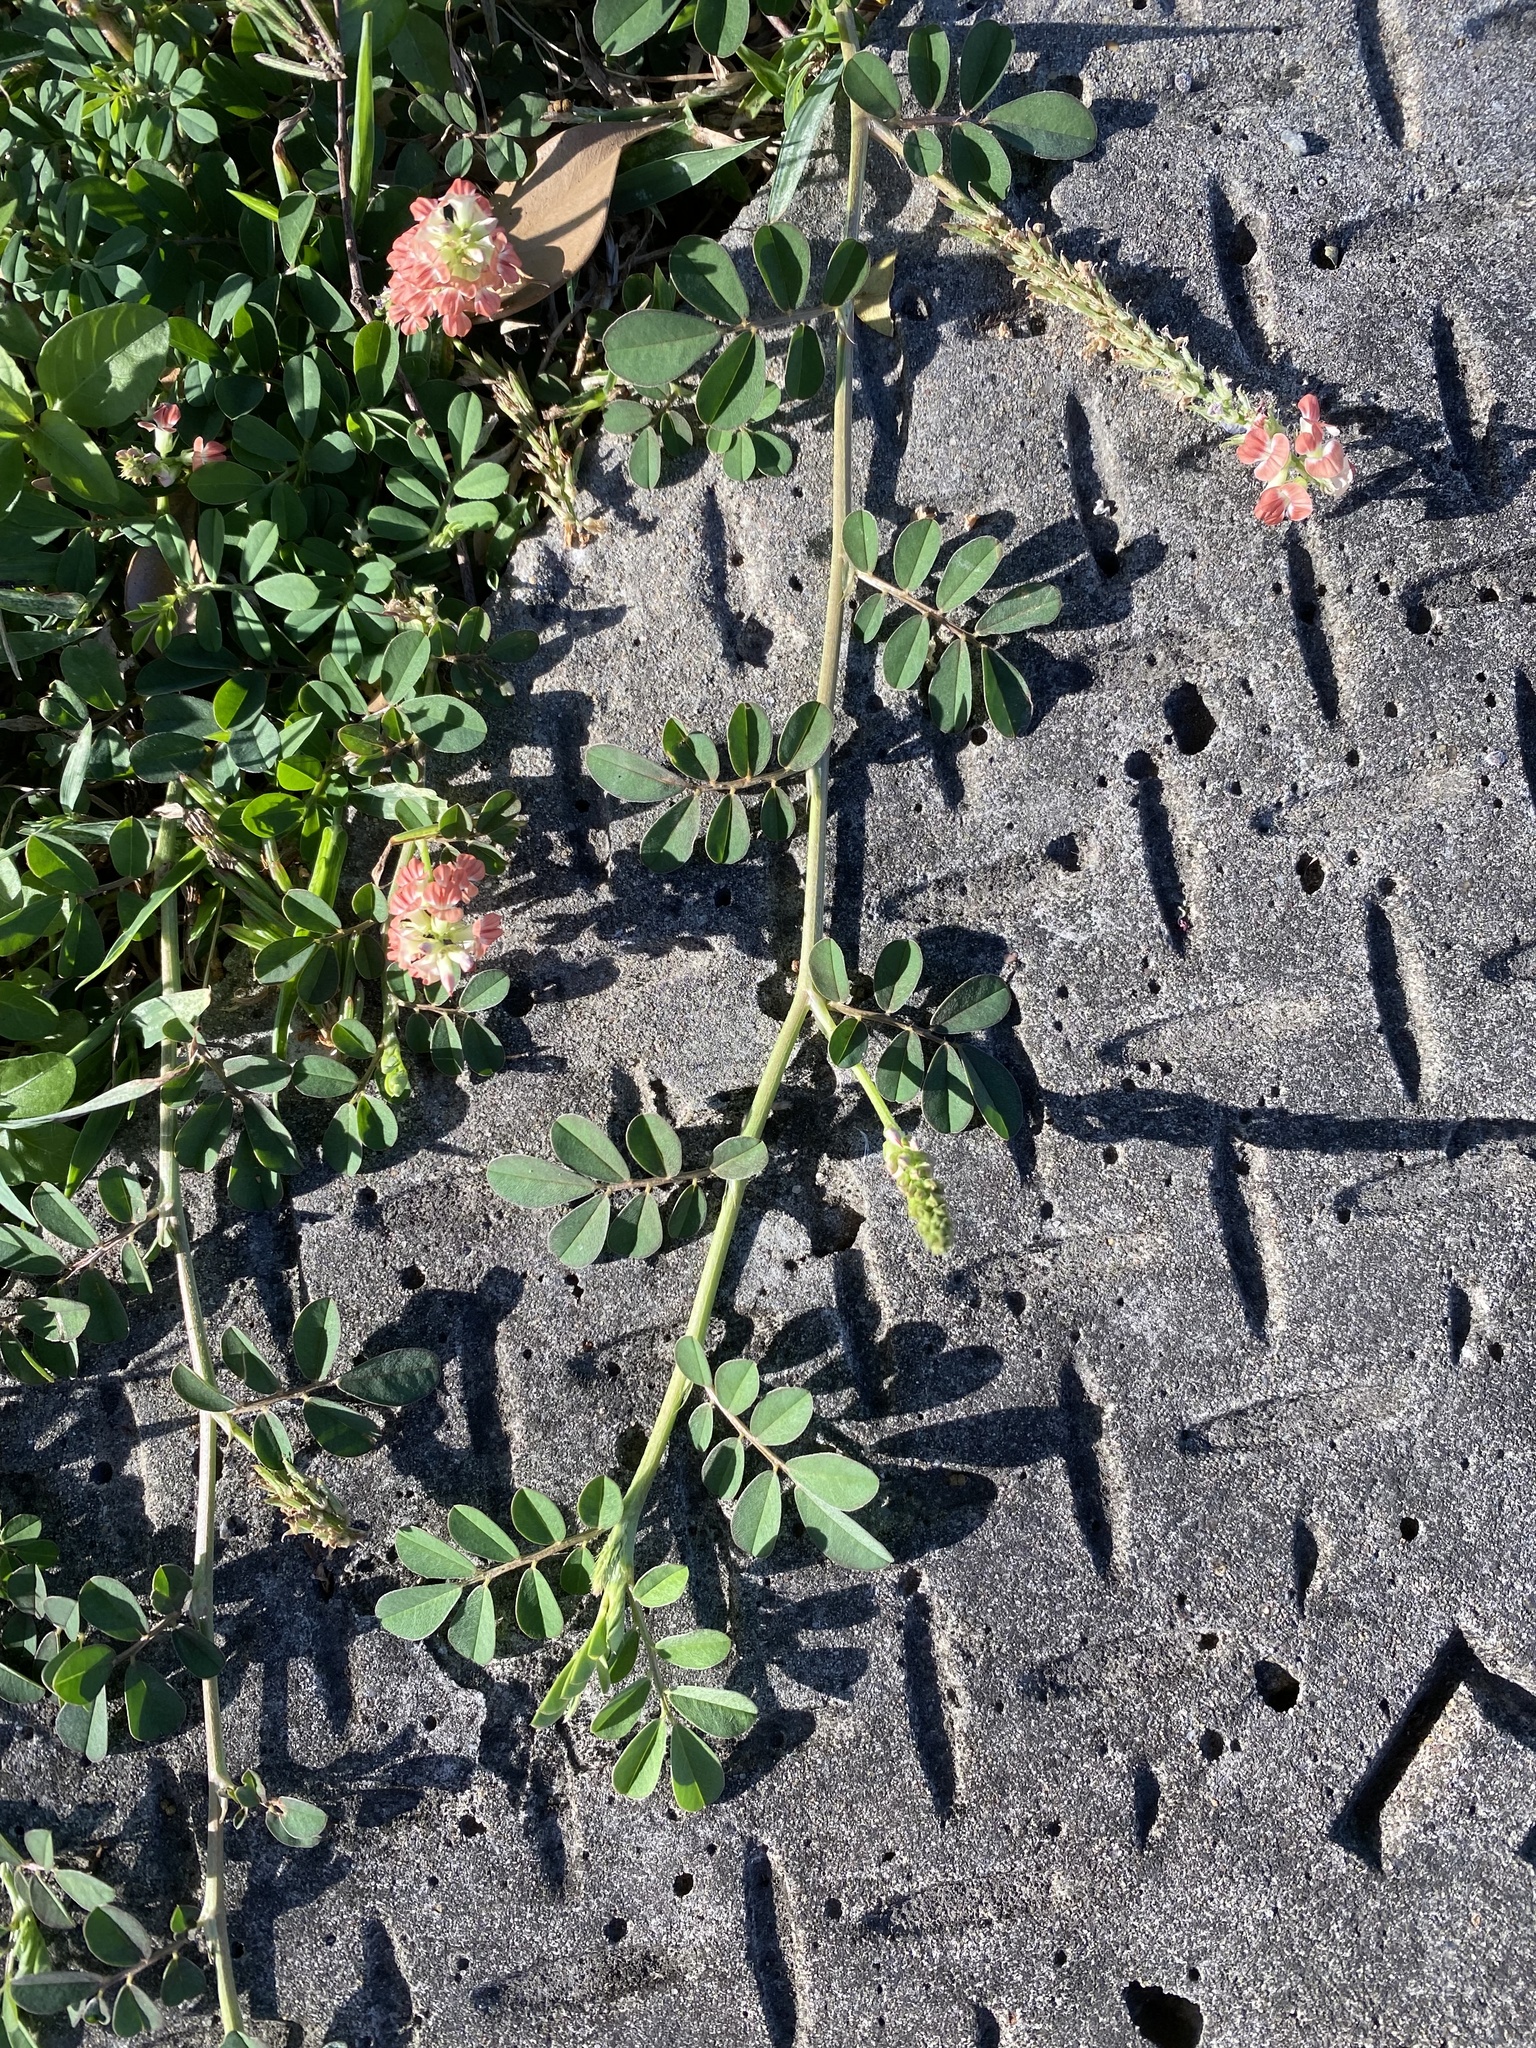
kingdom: Plantae
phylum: Tracheophyta
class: Magnoliopsida
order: Fabales
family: Fabaceae
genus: Indigofera
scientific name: Indigofera spicata
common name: Creeping indigo
